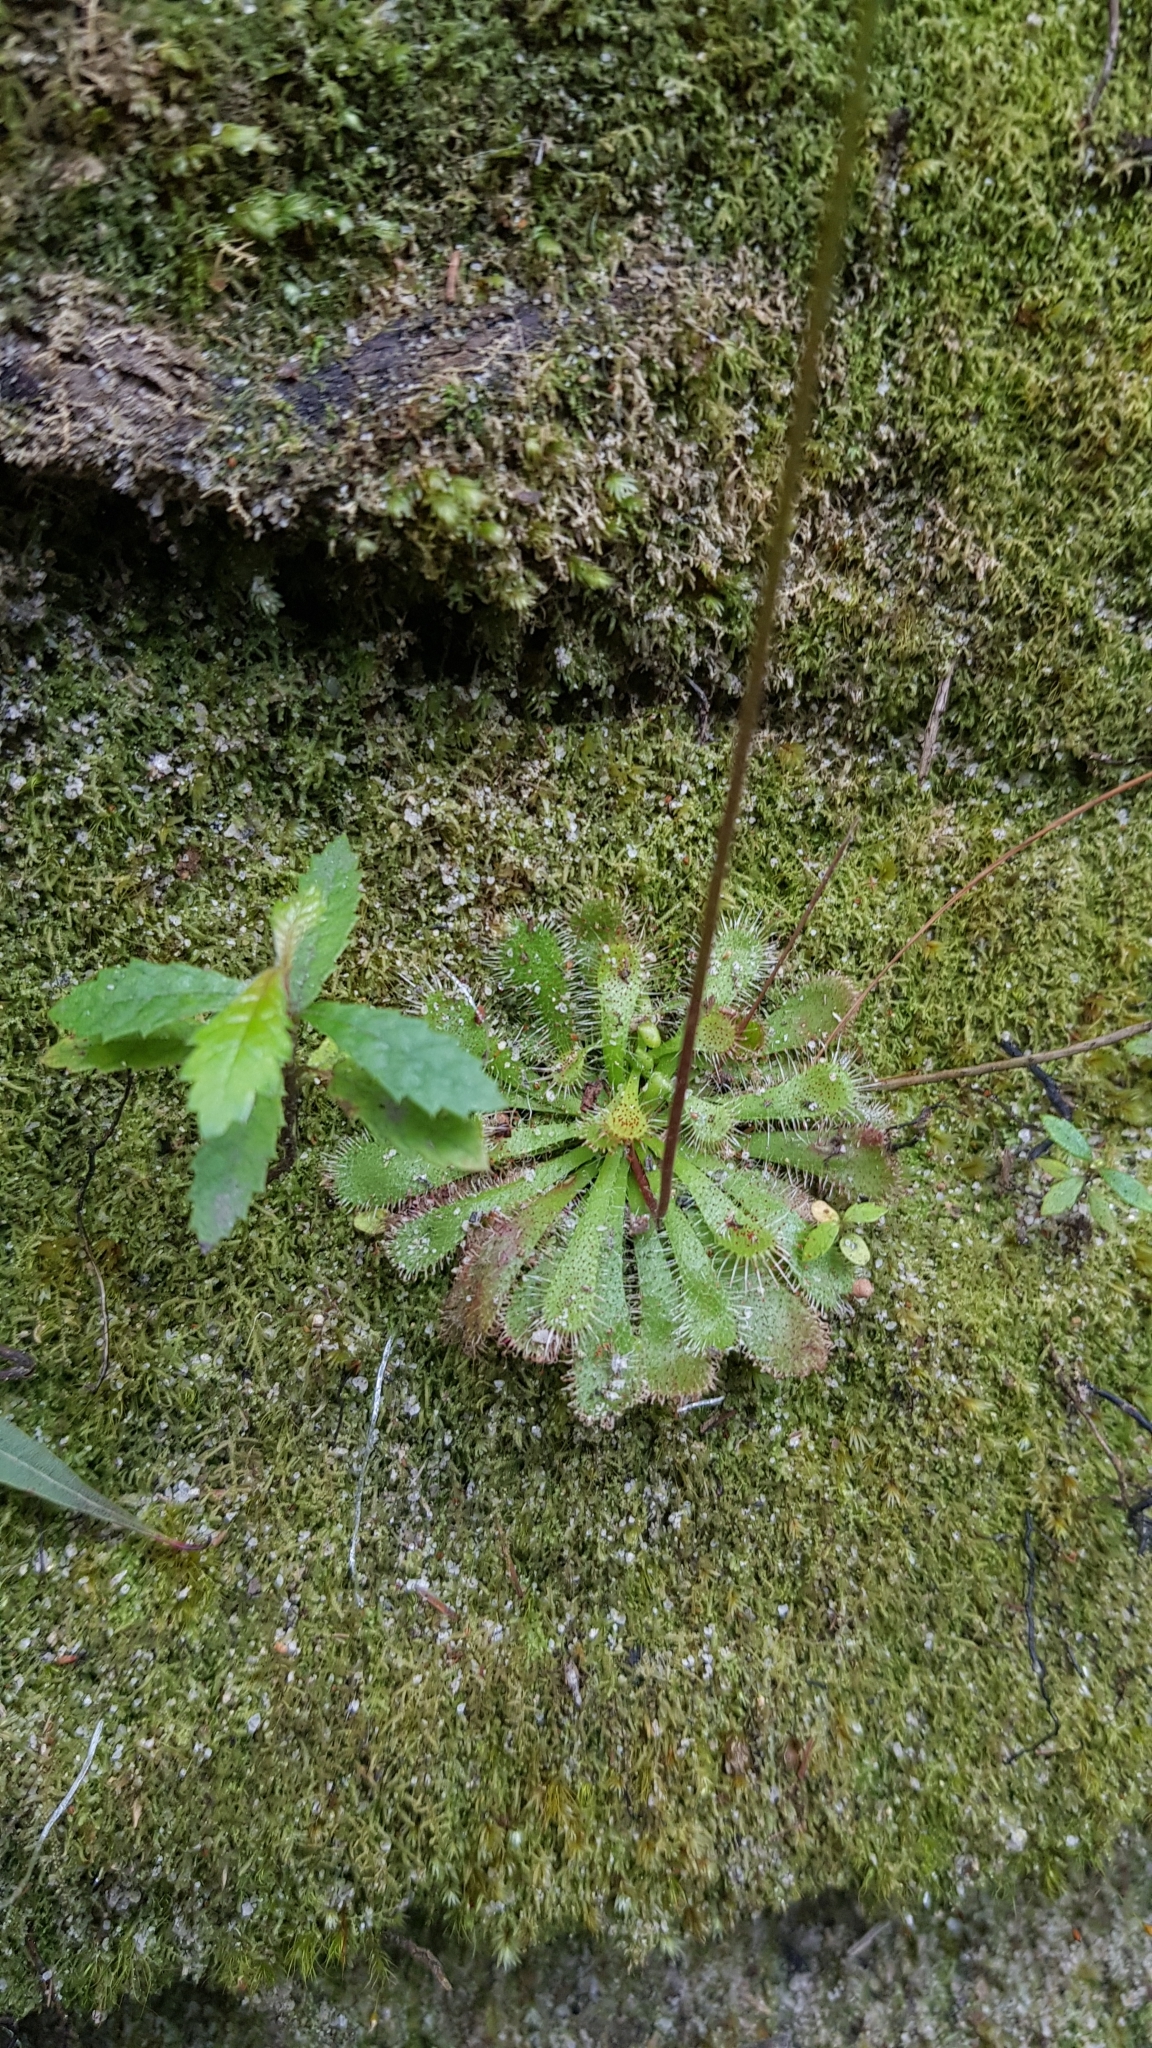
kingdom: Plantae
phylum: Tracheophyta
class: Magnoliopsida
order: Caryophyllales
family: Droseraceae
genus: Drosera
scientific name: Drosera spatulata
